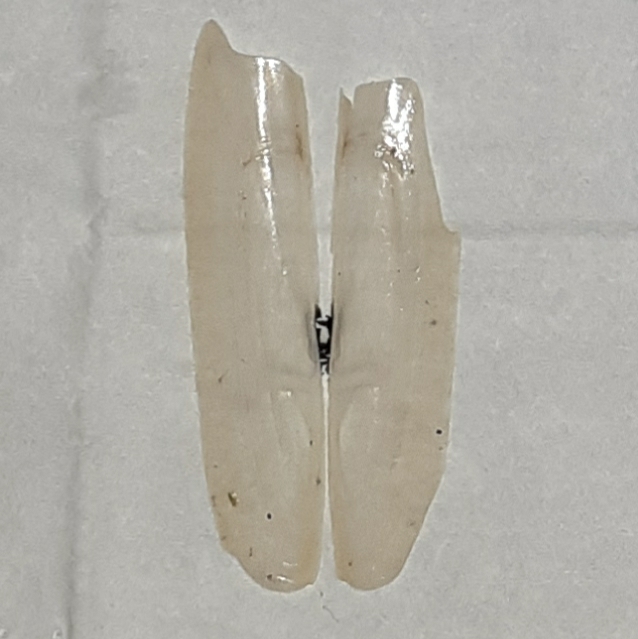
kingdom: Animalia
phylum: Mollusca
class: Bivalvia
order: Adapedonta
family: Pharidae
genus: Pharus
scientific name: Pharus legumen
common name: Bean razor clam
